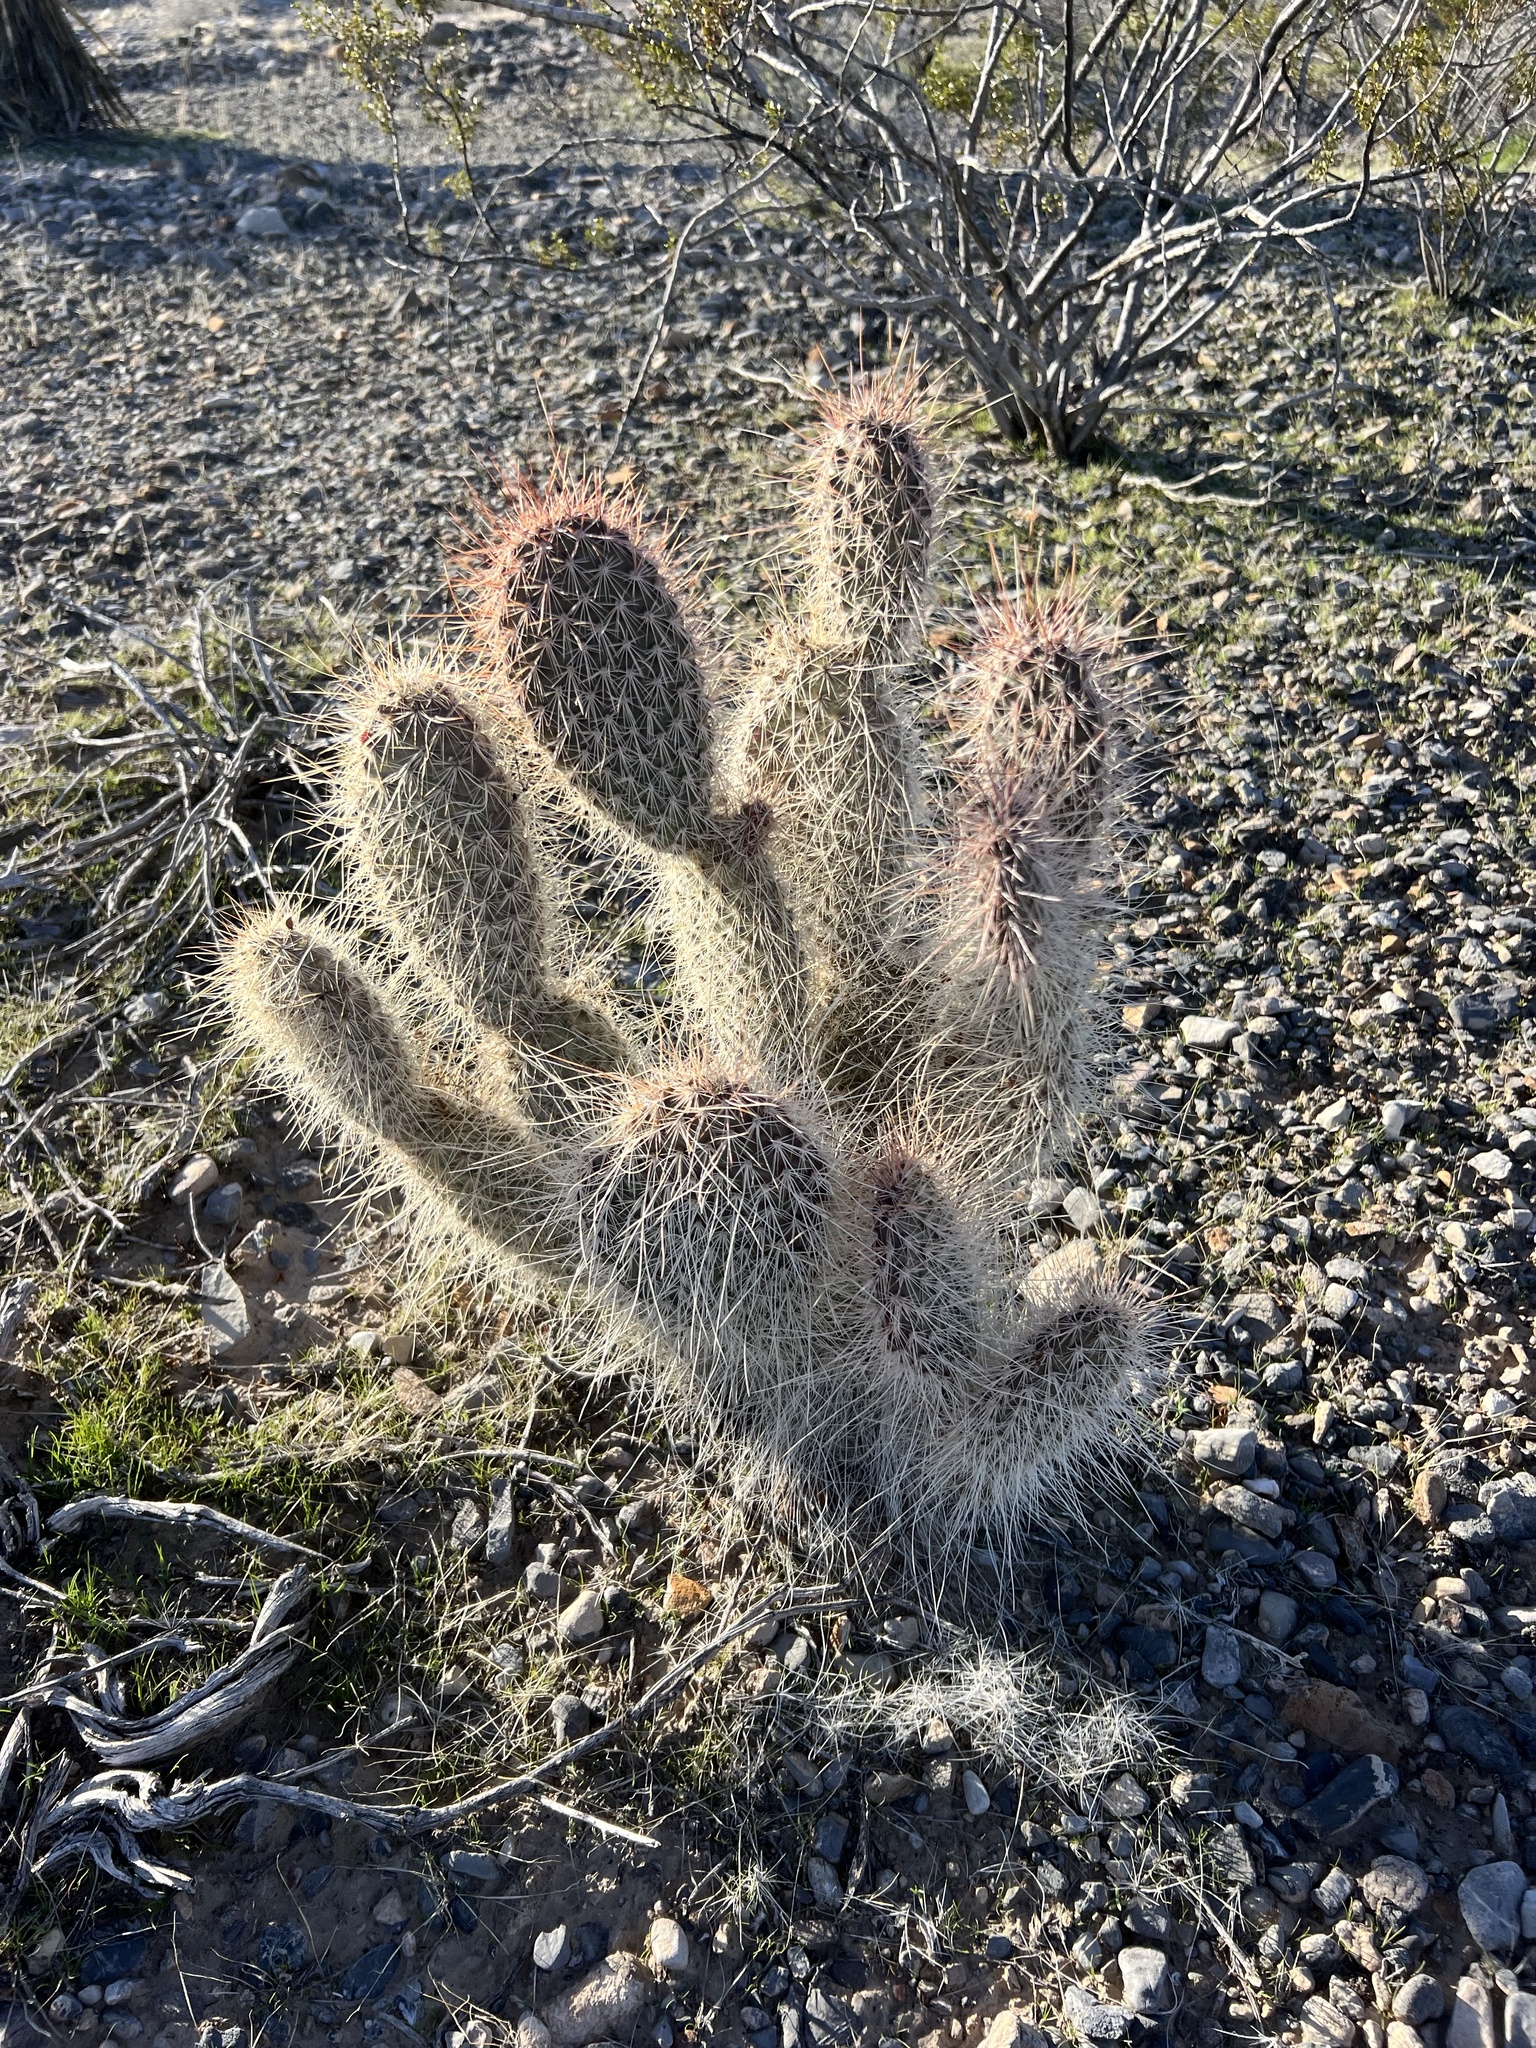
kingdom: Plantae
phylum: Tracheophyta
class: Magnoliopsida
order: Caryophyllales
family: Cactaceae
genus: Opuntia
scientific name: Opuntia polyacantha
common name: Plains prickly-pear
